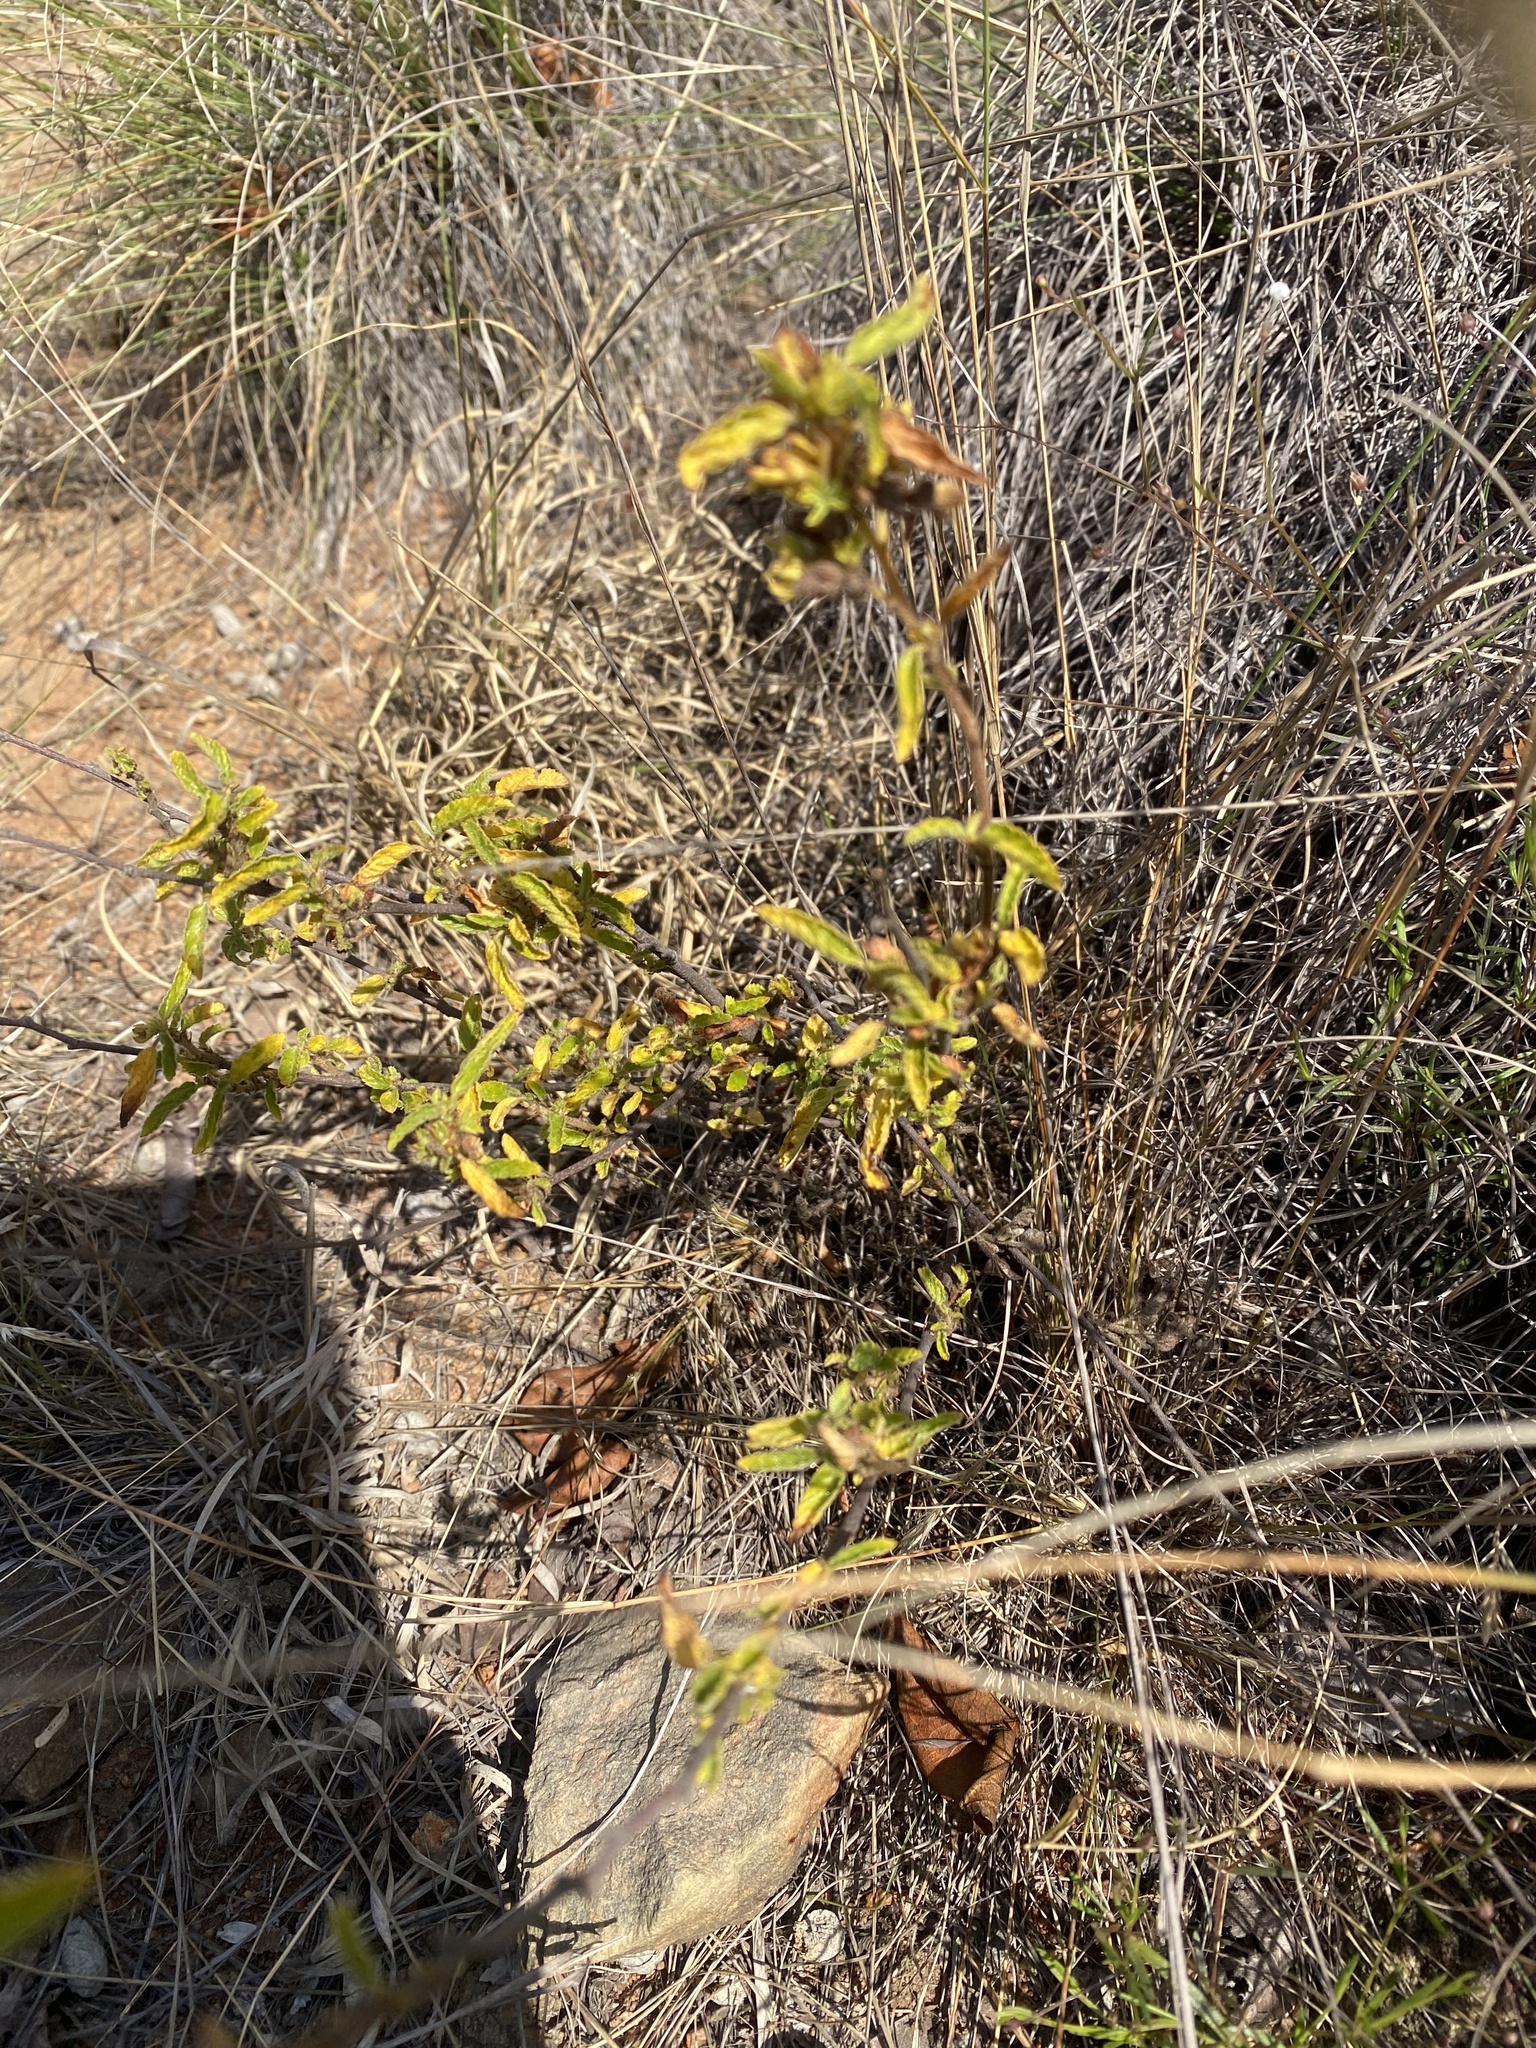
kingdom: Plantae
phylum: Tracheophyta
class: Magnoliopsida
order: Malvales
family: Malvaceae
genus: Waltheria
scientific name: Waltheria indica
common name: Leather-coat
